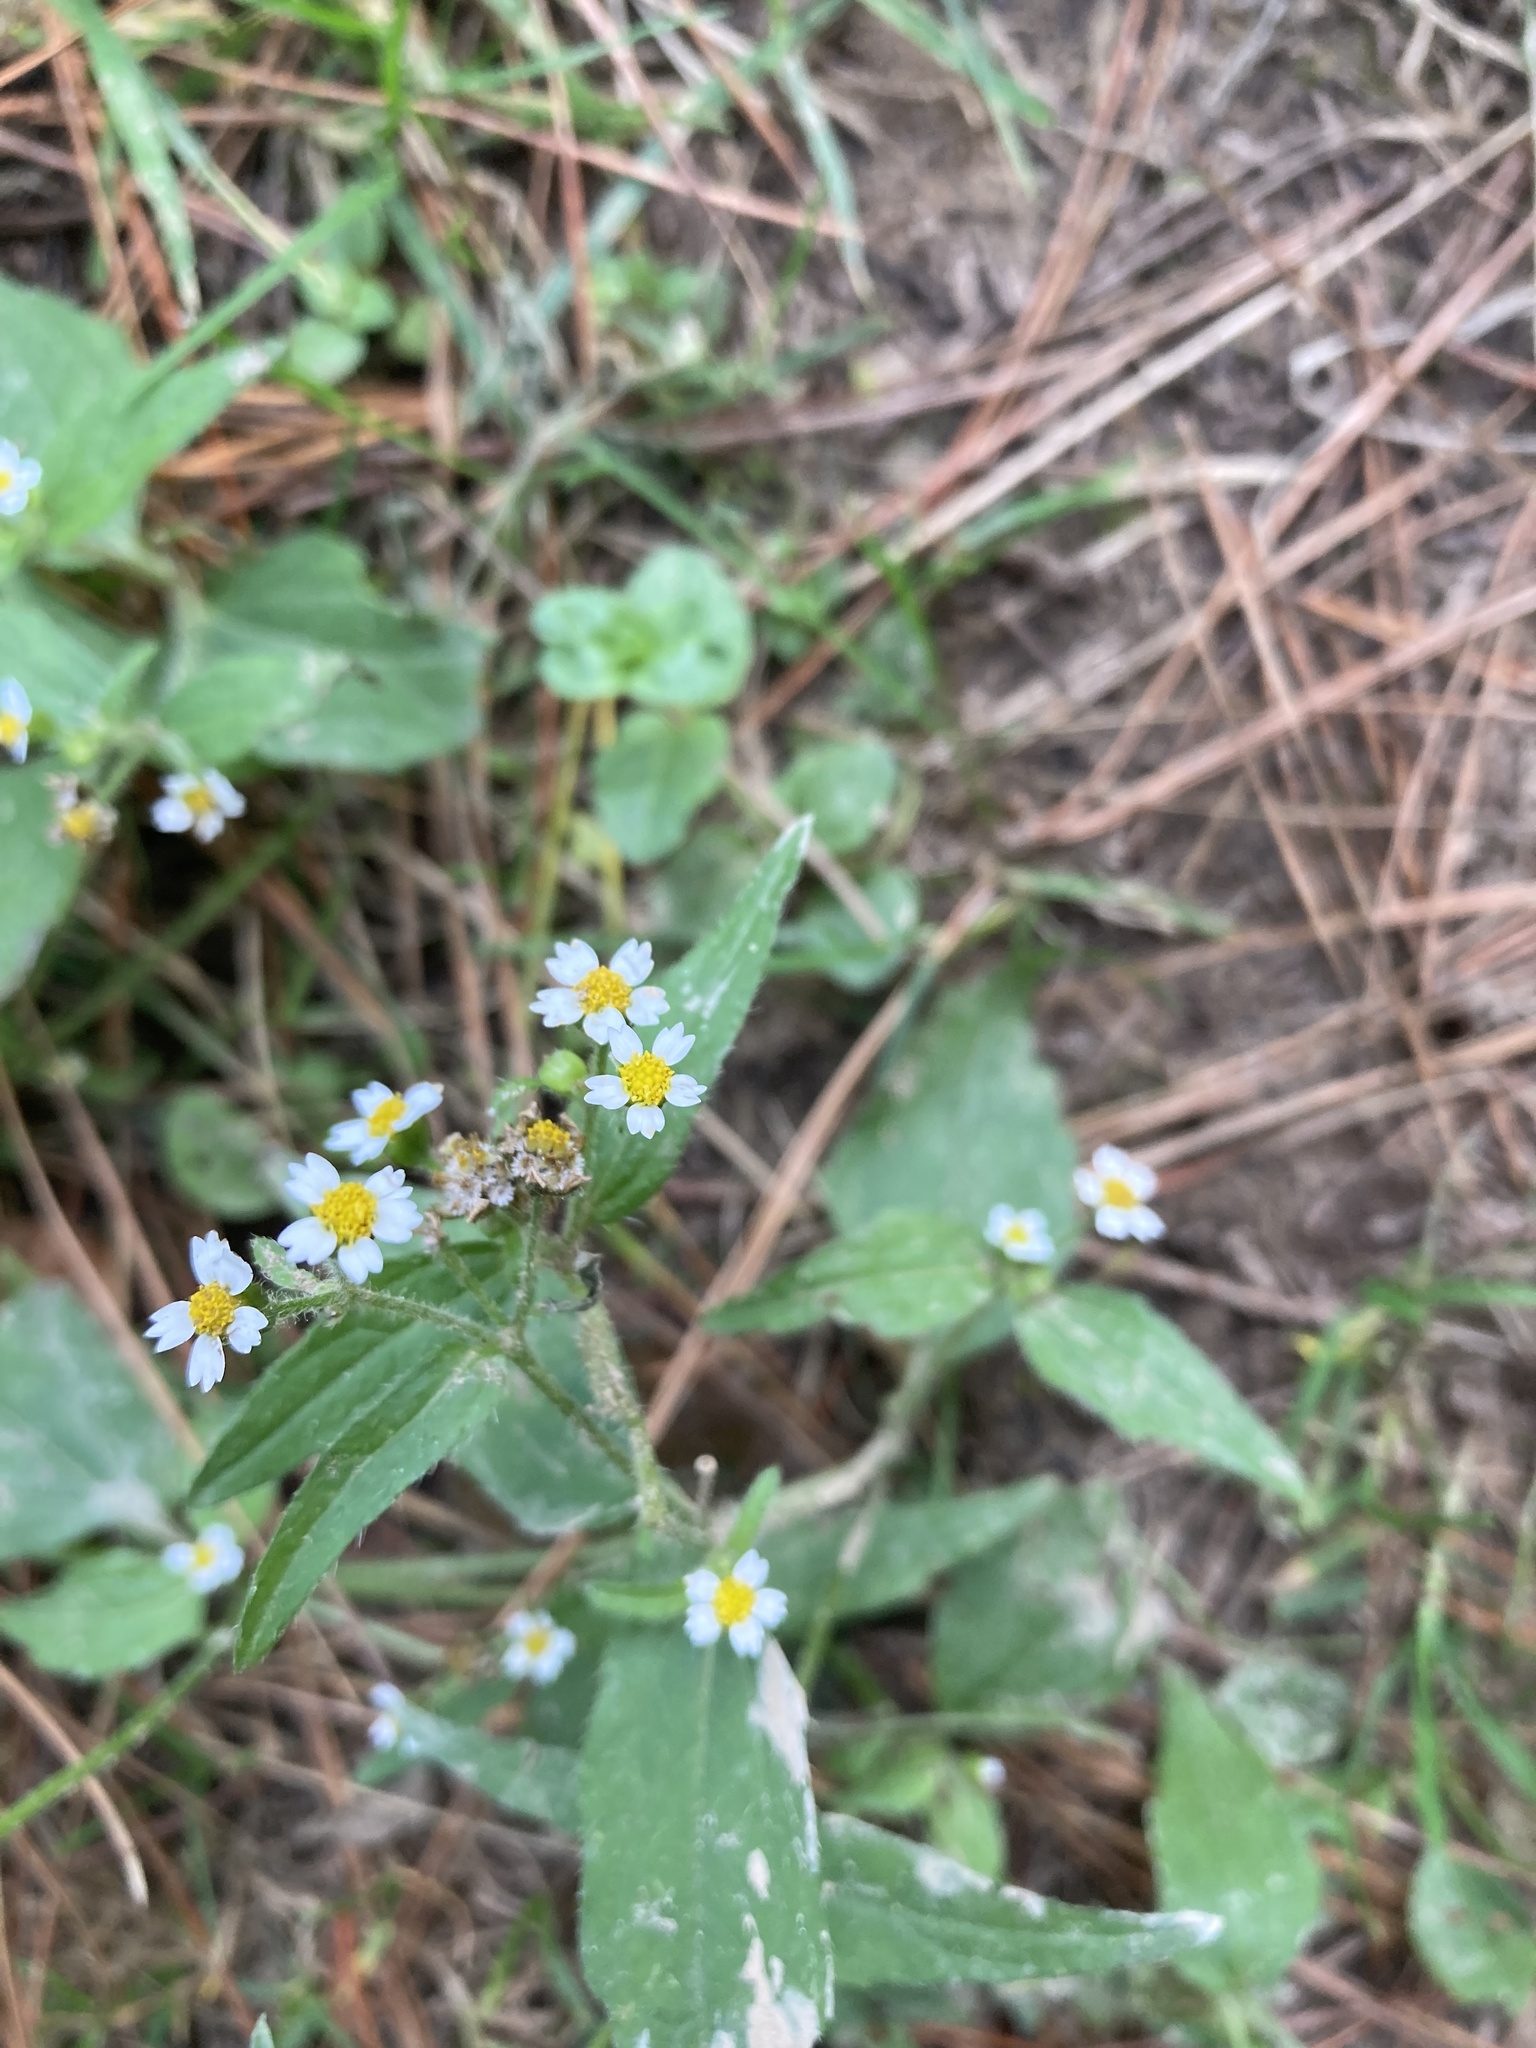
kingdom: Plantae
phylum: Tracheophyta
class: Magnoliopsida
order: Asterales
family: Asteraceae
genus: Galinsoga
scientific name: Galinsoga quadriradiata
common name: Shaggy soldier
